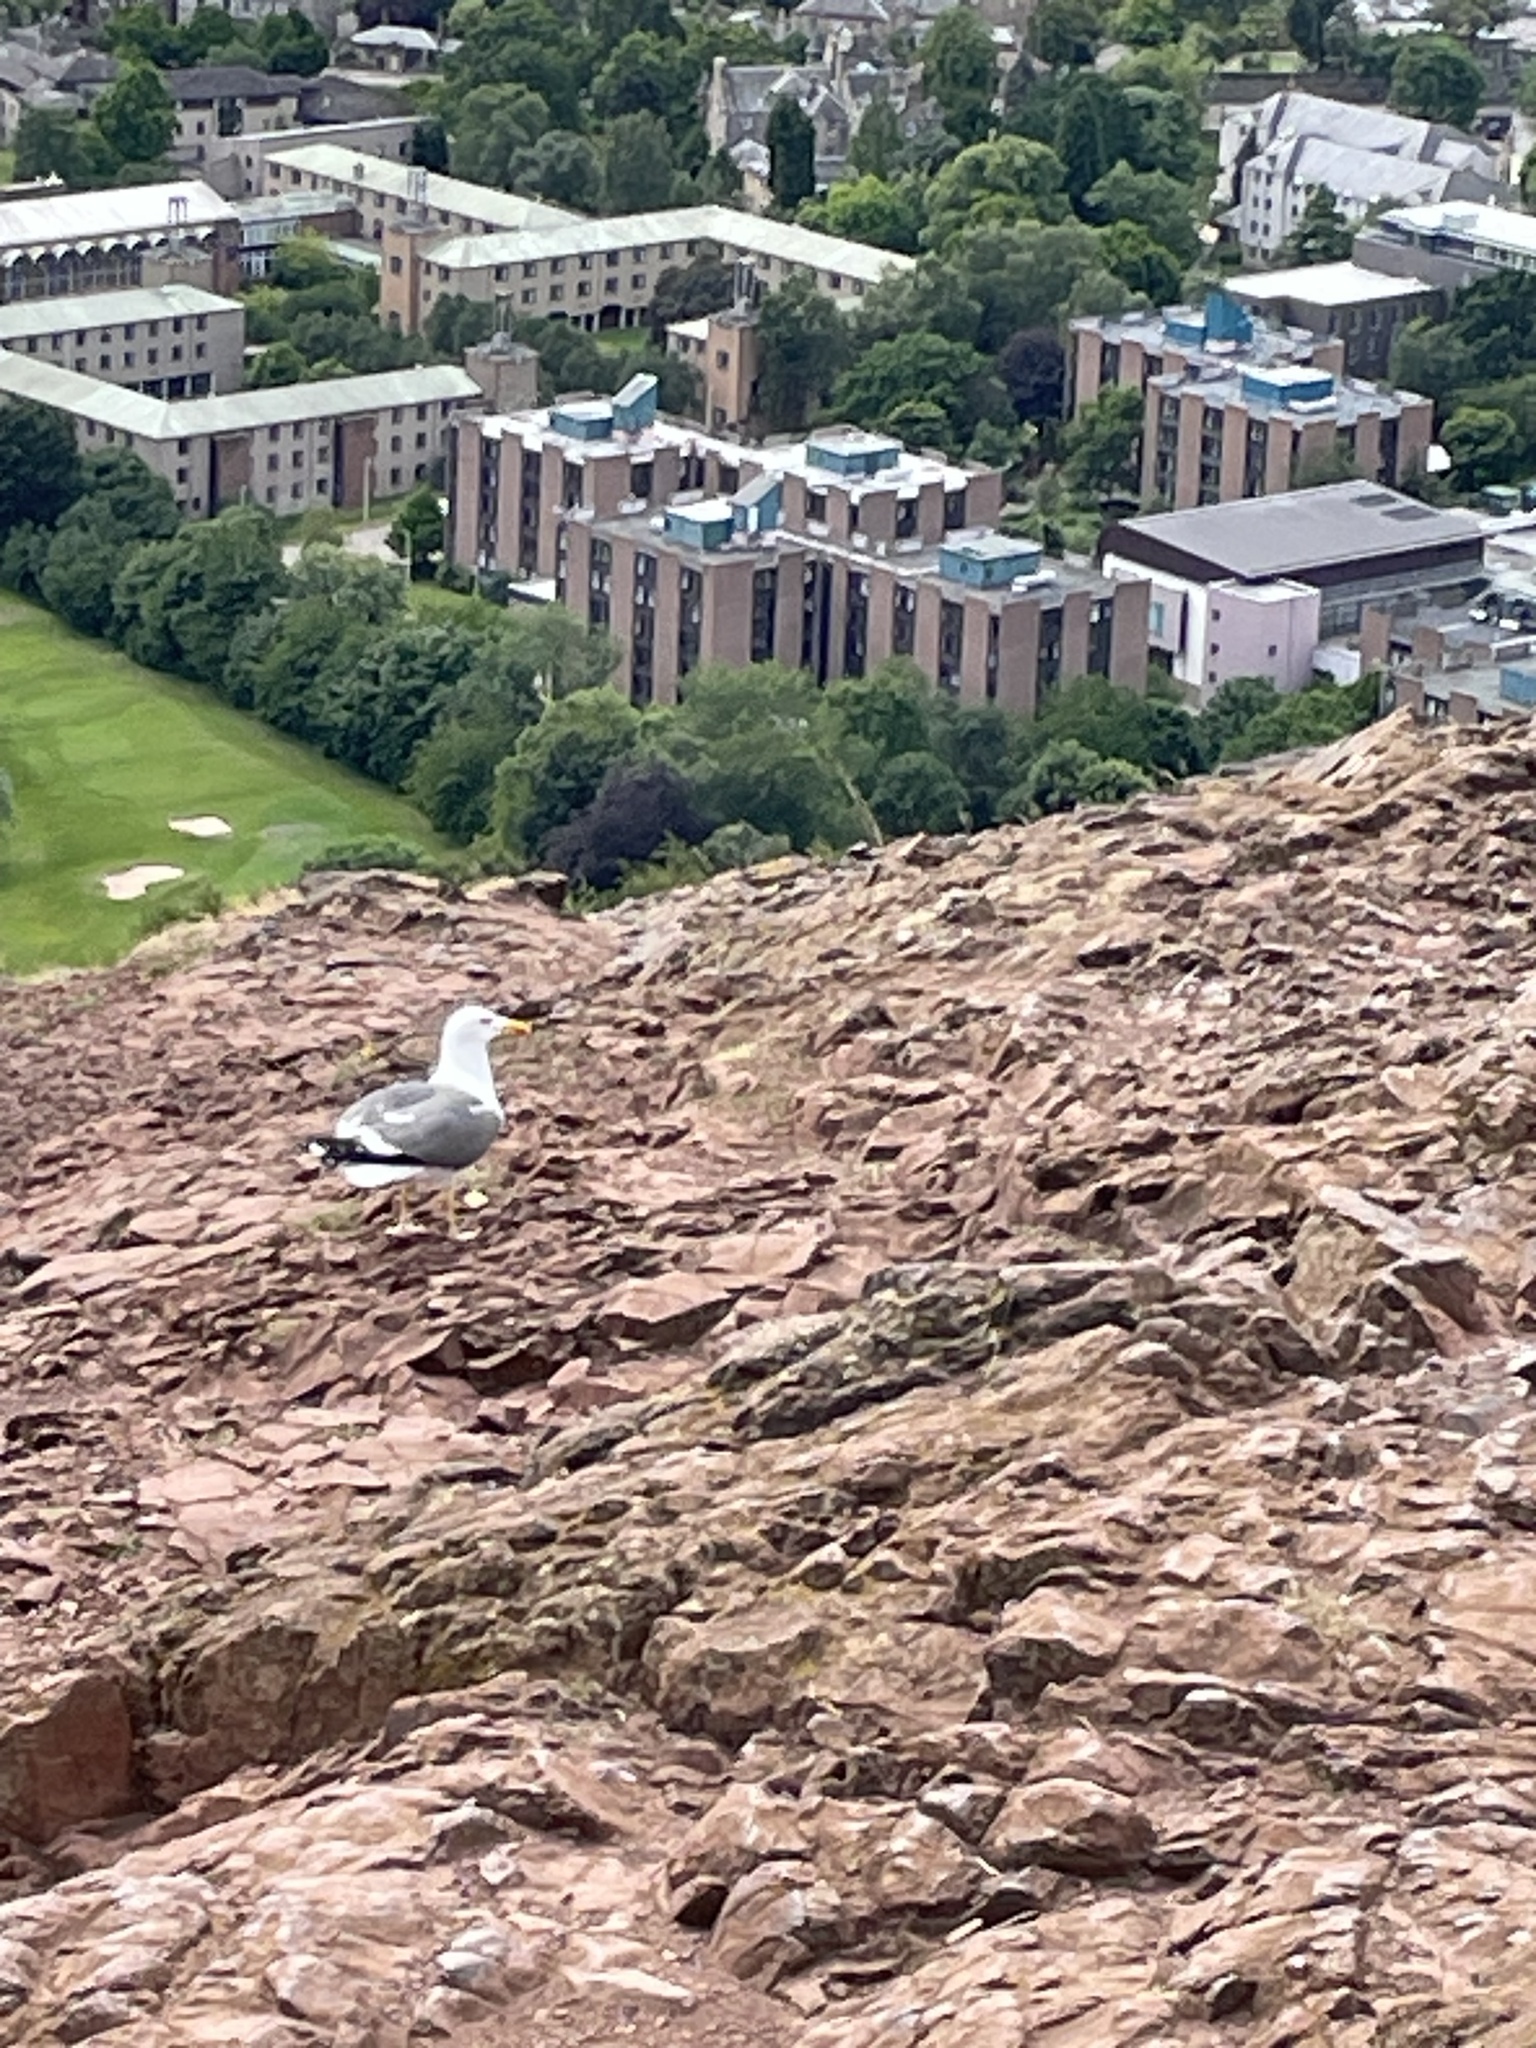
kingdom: Animalia
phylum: Chordata
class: Aves
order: Charadriiformes
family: Laridae
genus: Larus
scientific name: Larus fuscus
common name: Lesser black-backed gull
